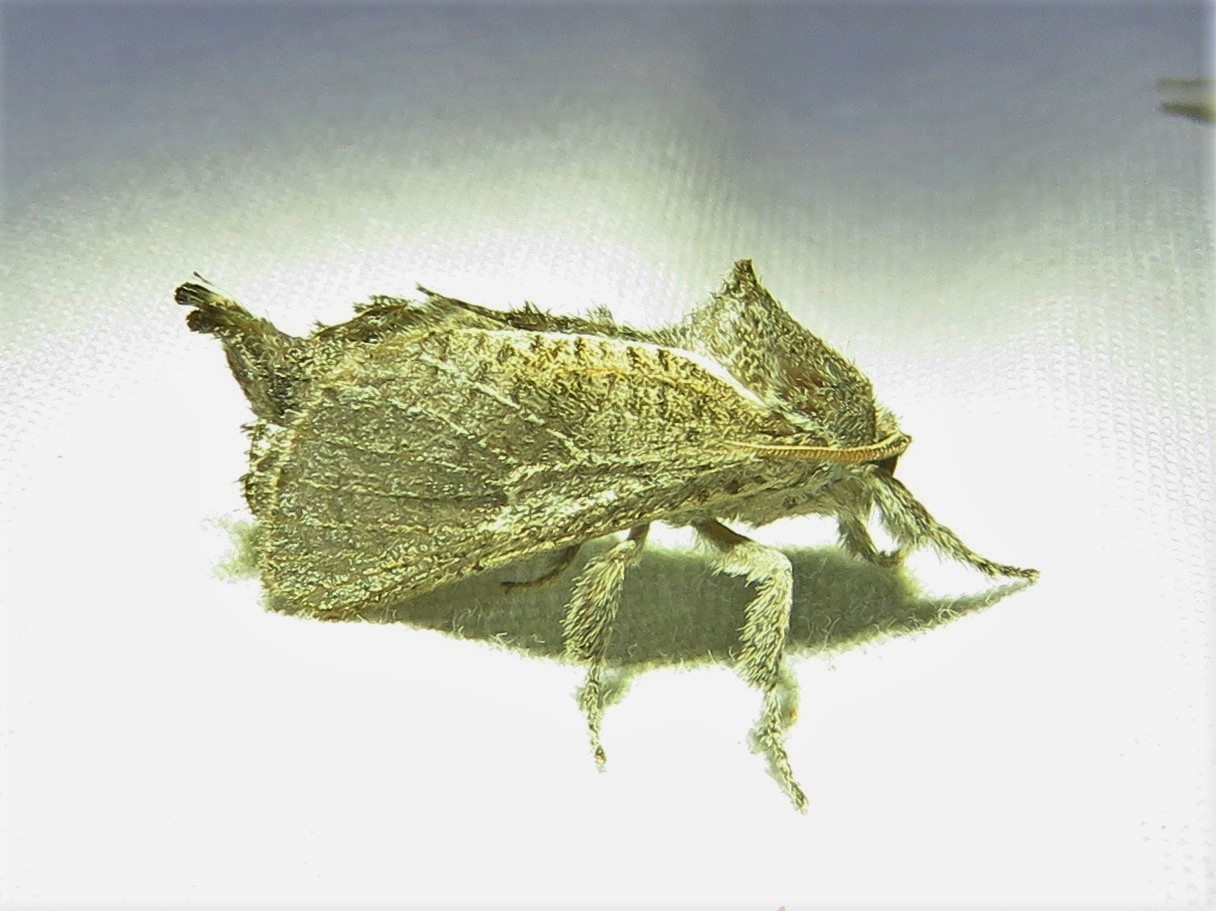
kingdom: Animalia
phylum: Arthropoda
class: Insecta
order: Lepidoptera
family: Cossidae
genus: Givira
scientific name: Givira anna
